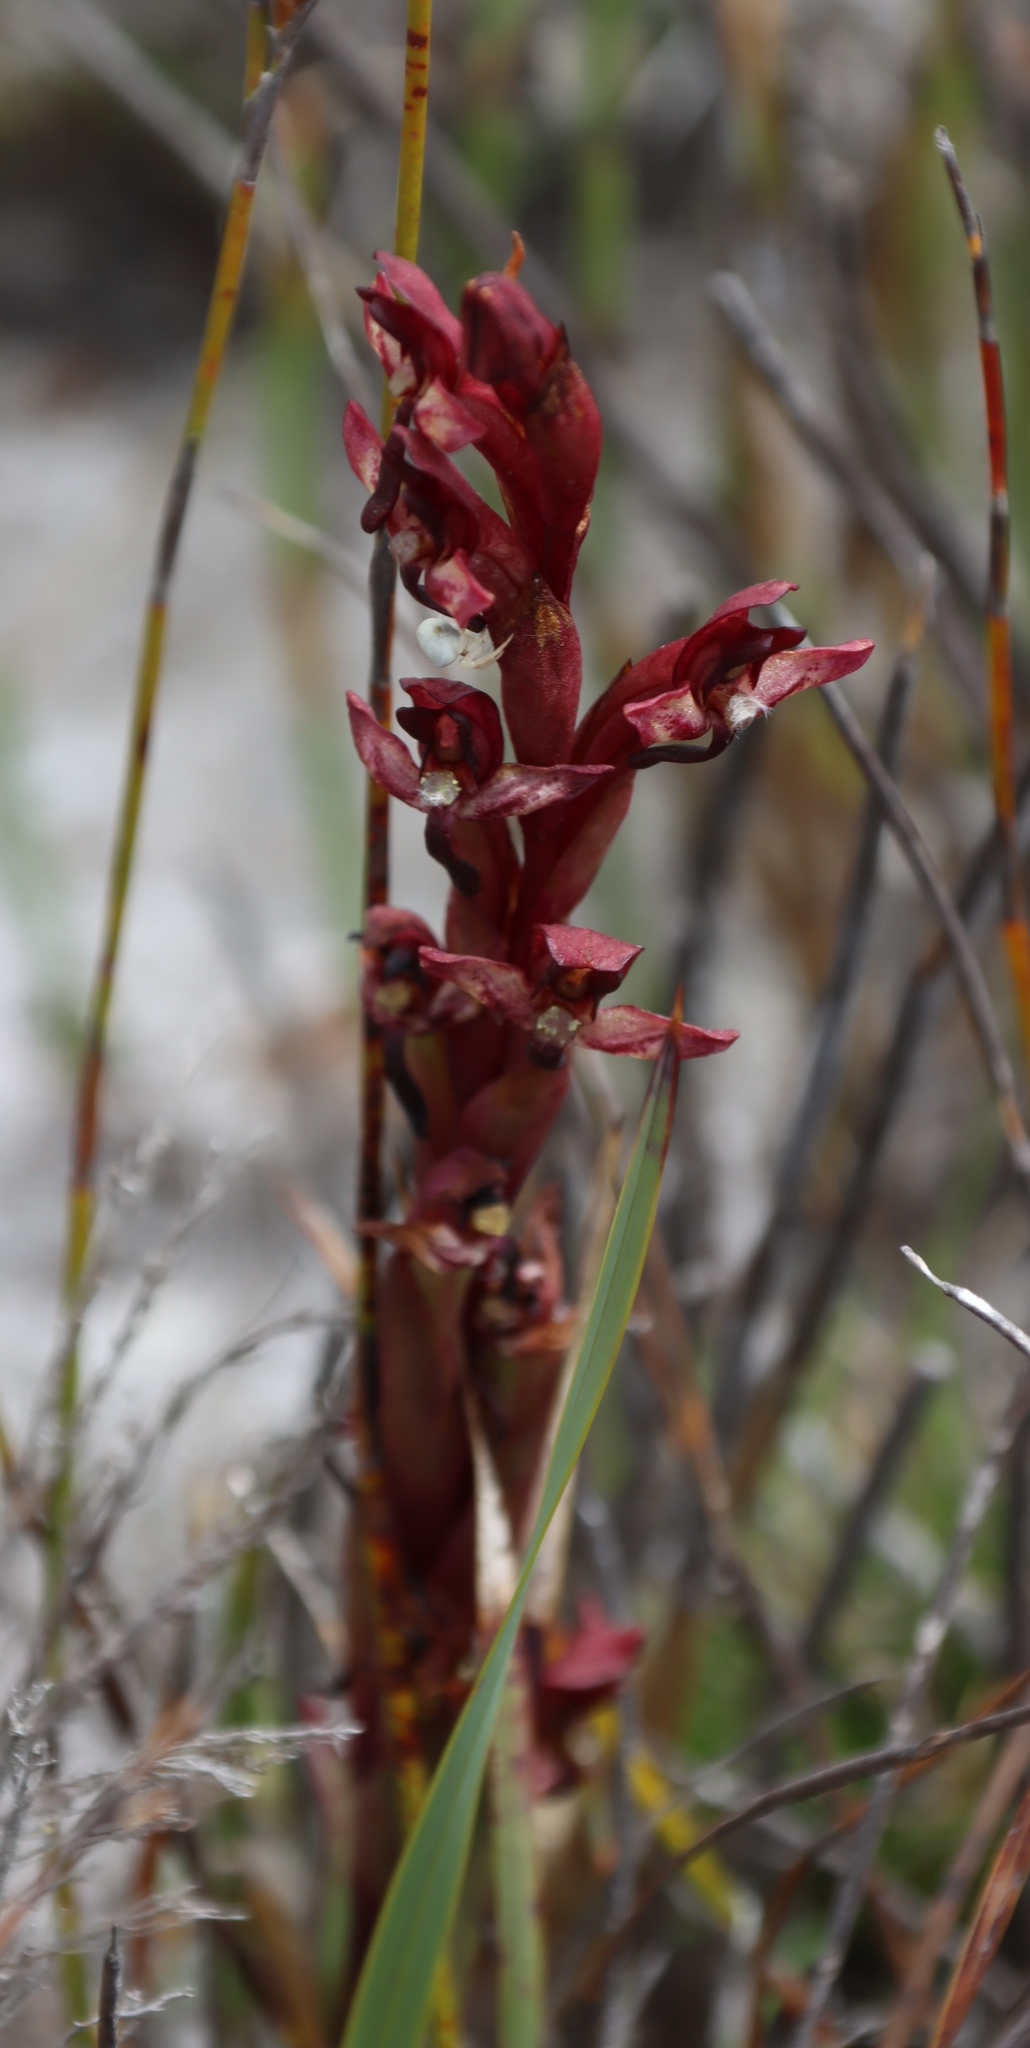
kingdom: Plantae
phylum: Tracheophyta
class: Liliopsida
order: Asparagales
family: Orchidaceae
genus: Disa
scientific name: Disa ophrydea
